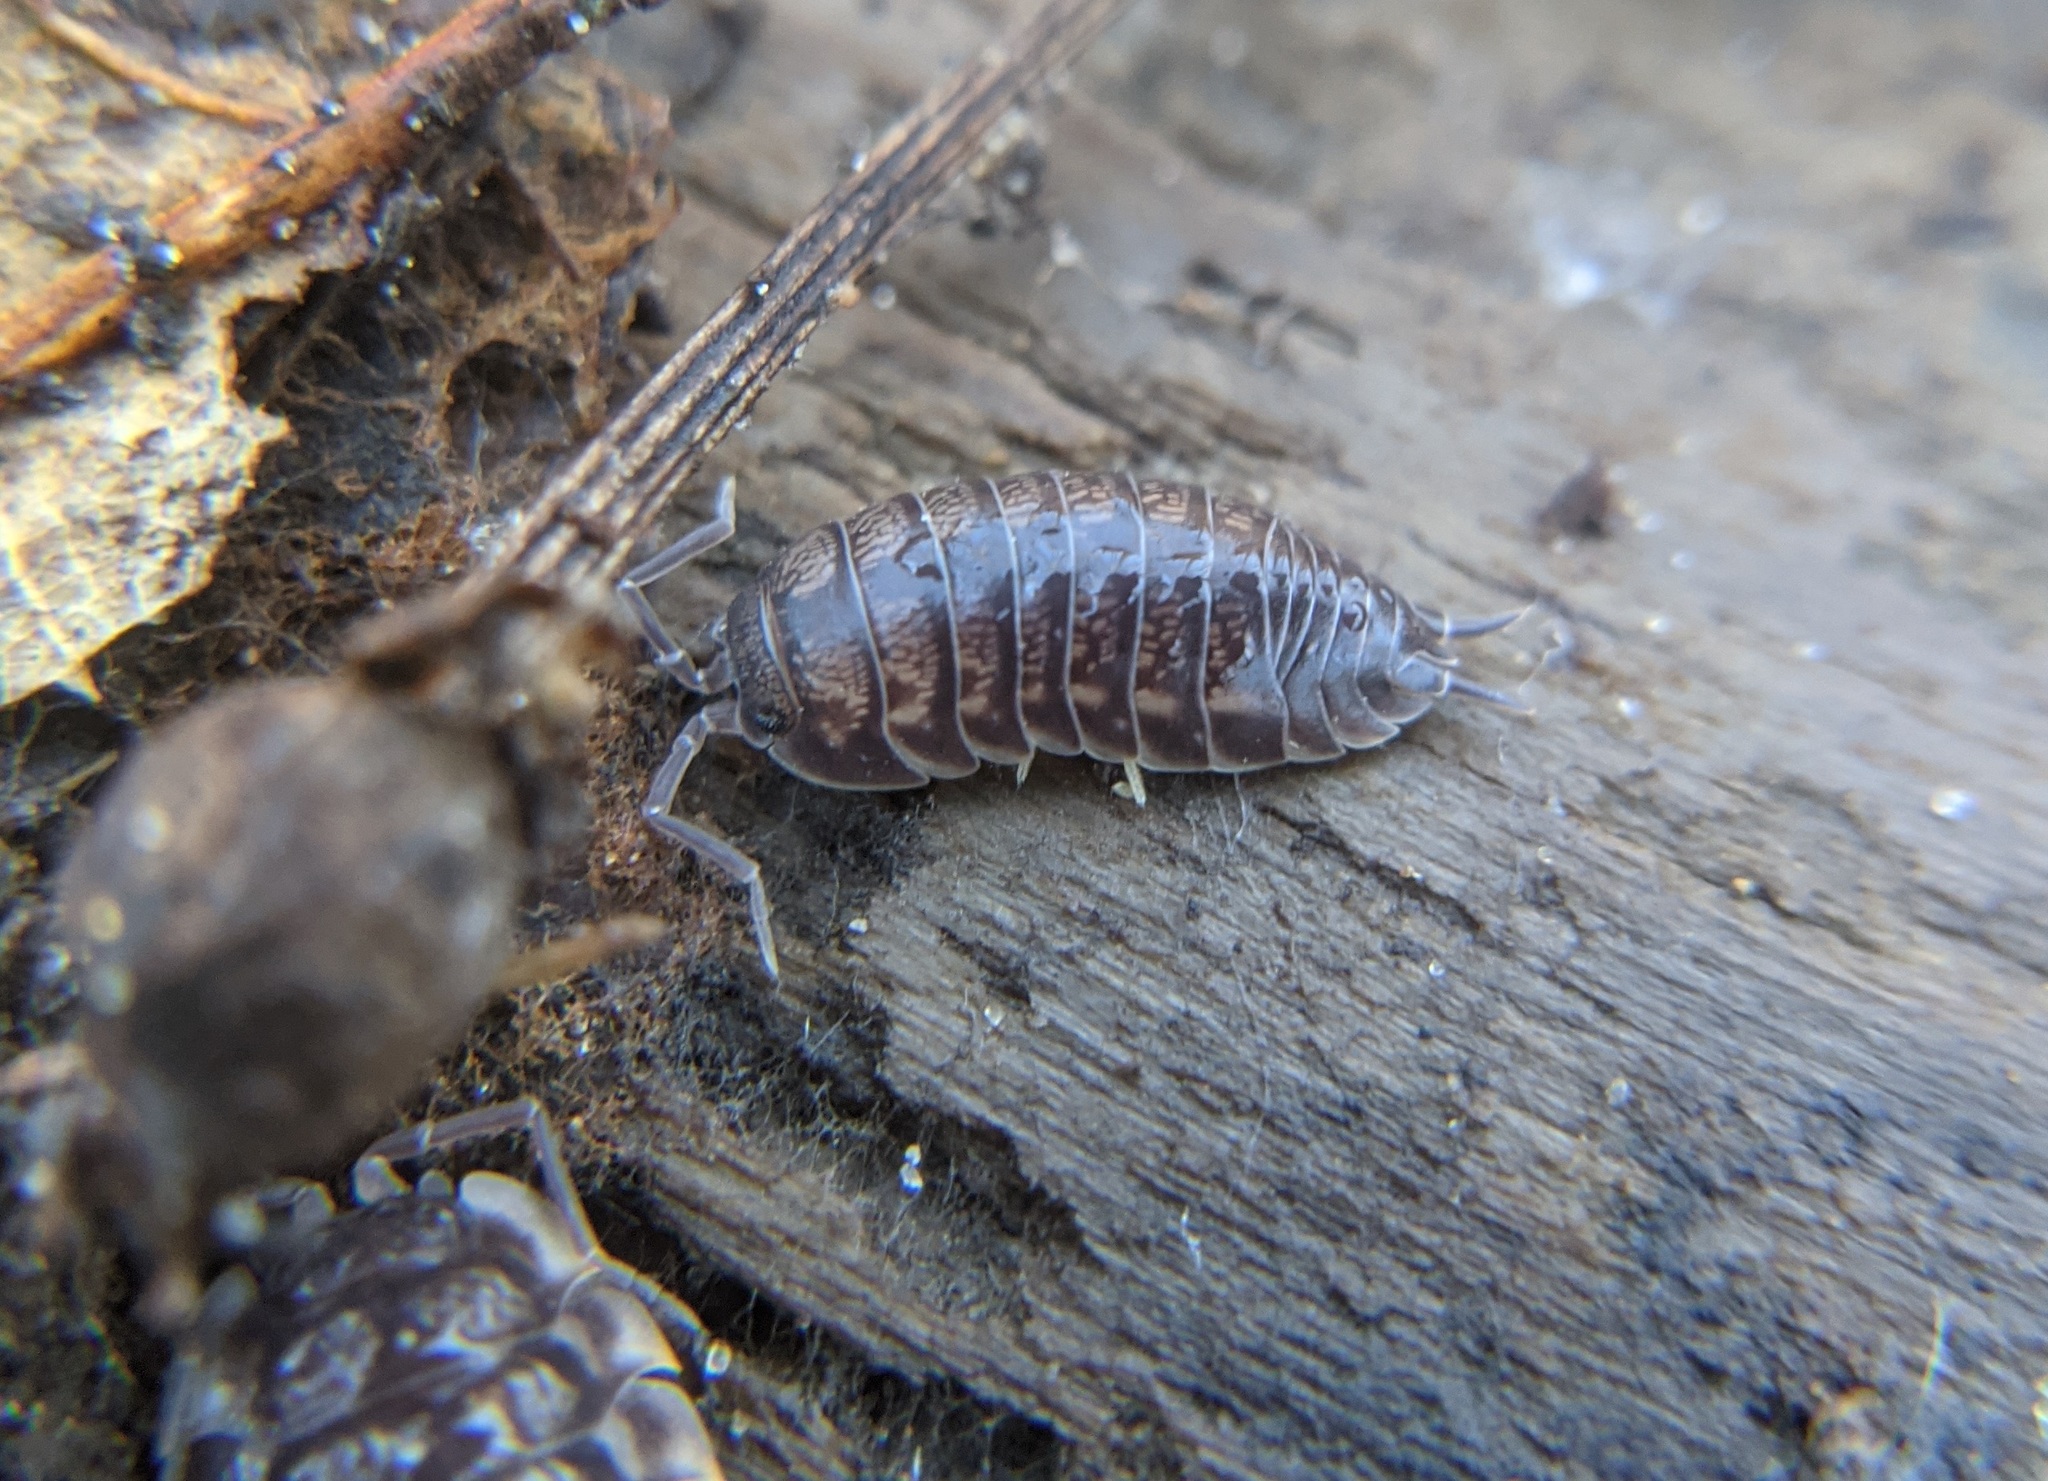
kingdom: Animalia
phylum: Arthropoda
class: Malacostraca
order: Isopoda
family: Cylisticidae
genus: Cylisticus
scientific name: Cylisticus convexus
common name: Curly woodlouse
